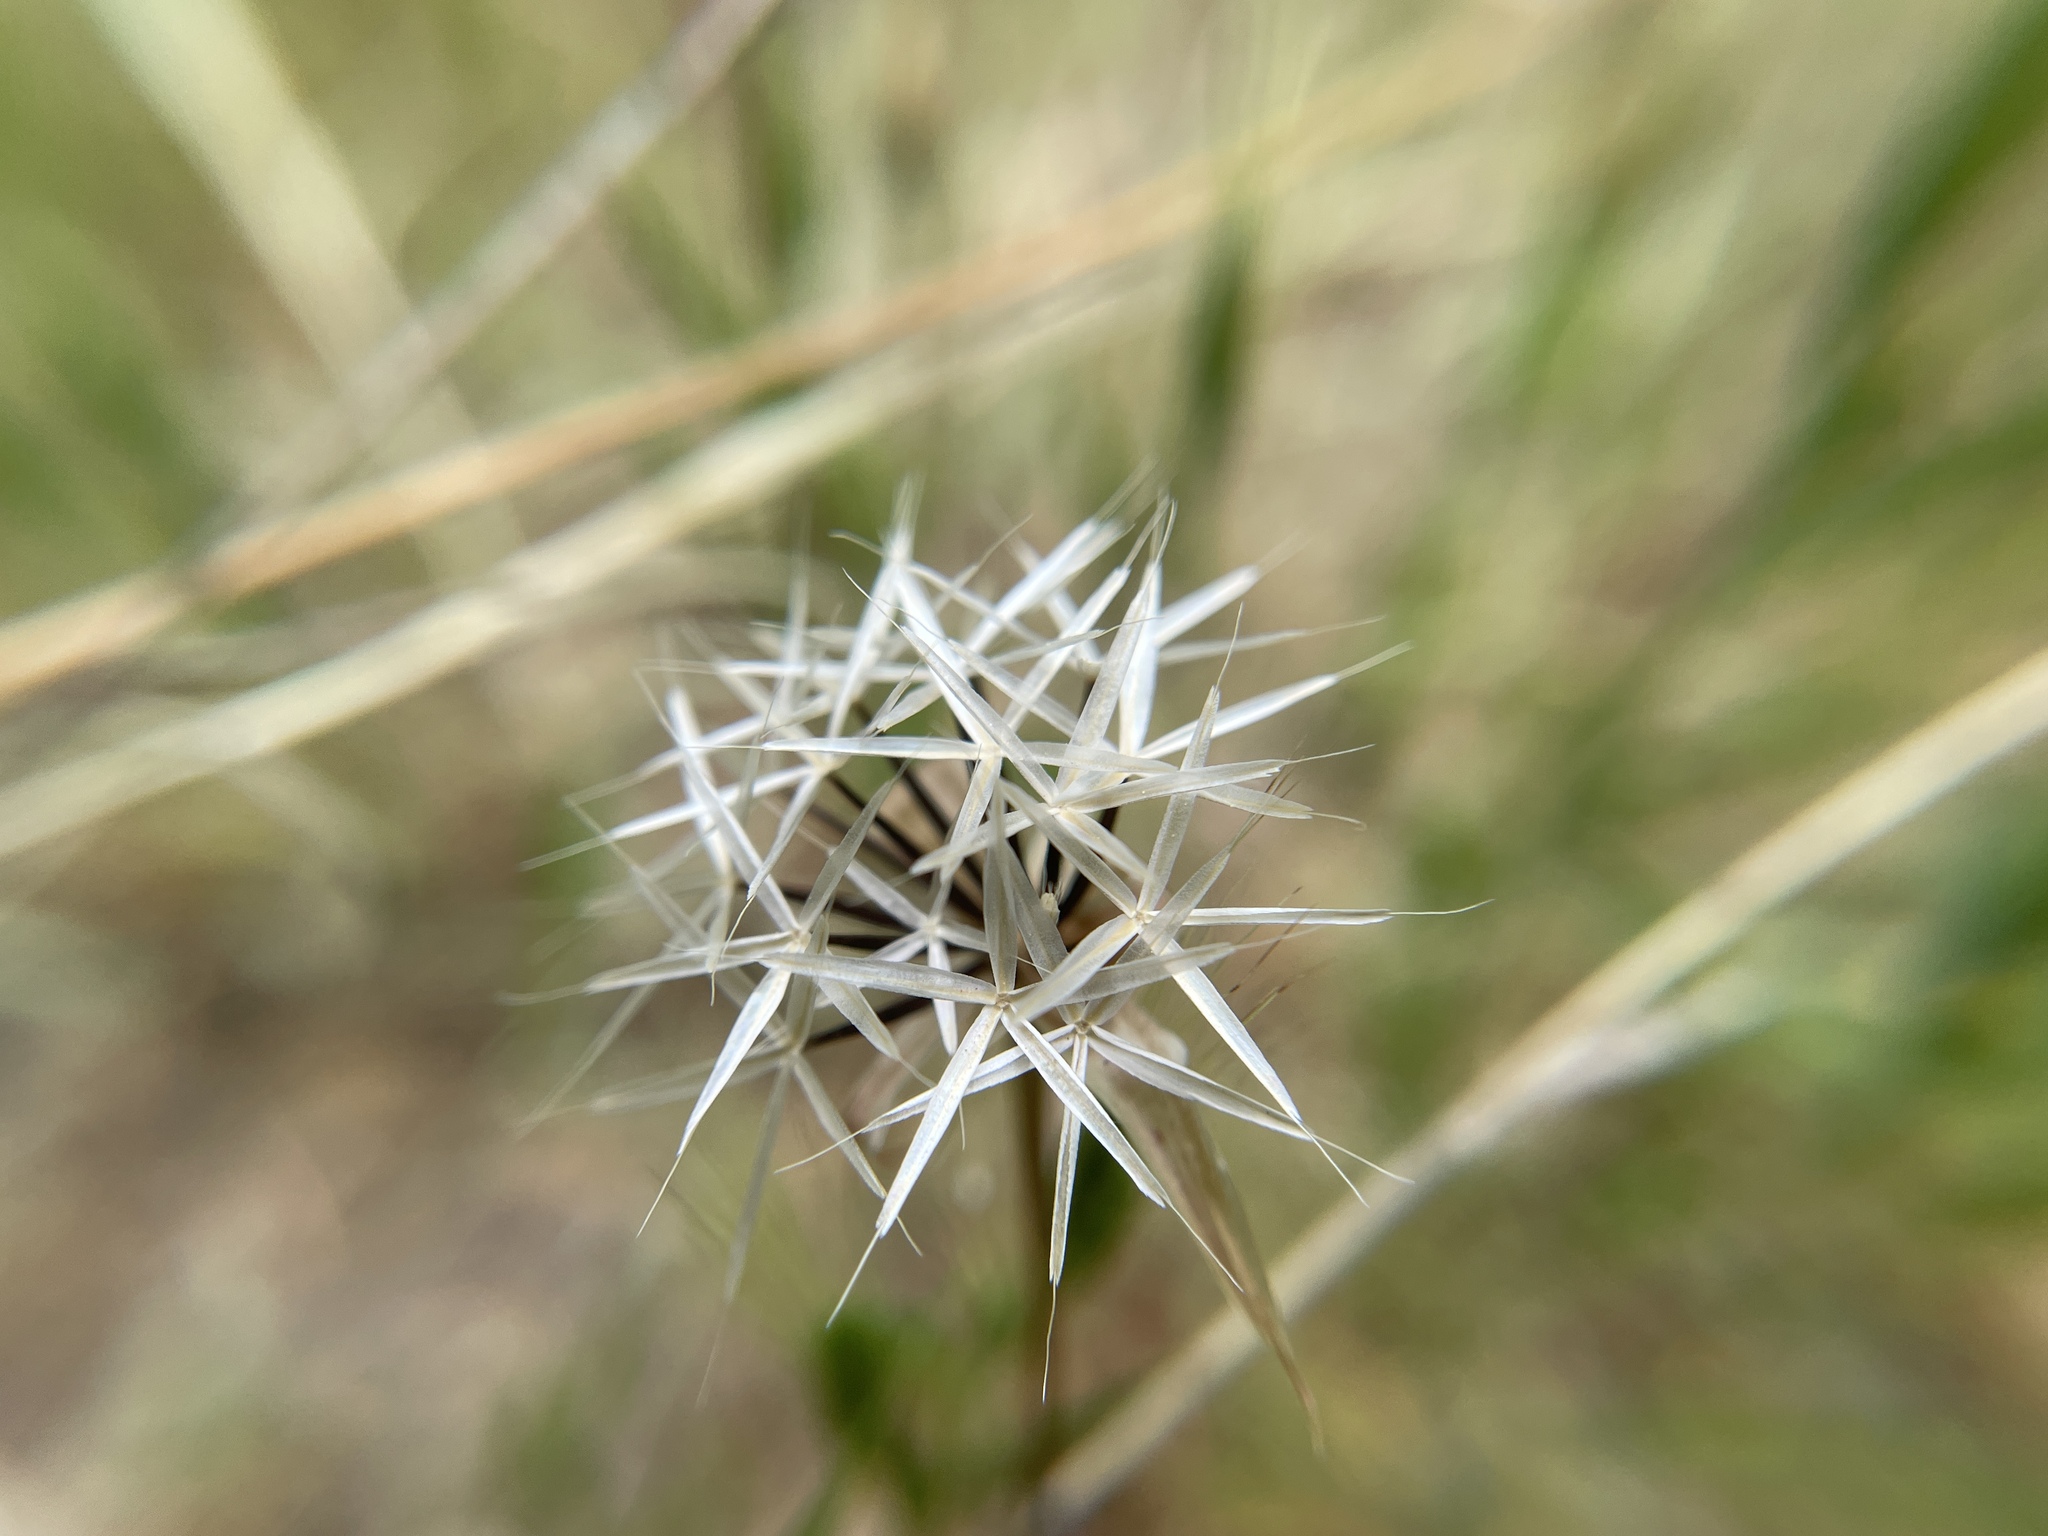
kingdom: Plantae
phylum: Tracheophyta
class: Magnoliopsida
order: Asterales
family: Asteraceae
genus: Microseris
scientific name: Microseris lindleyi
